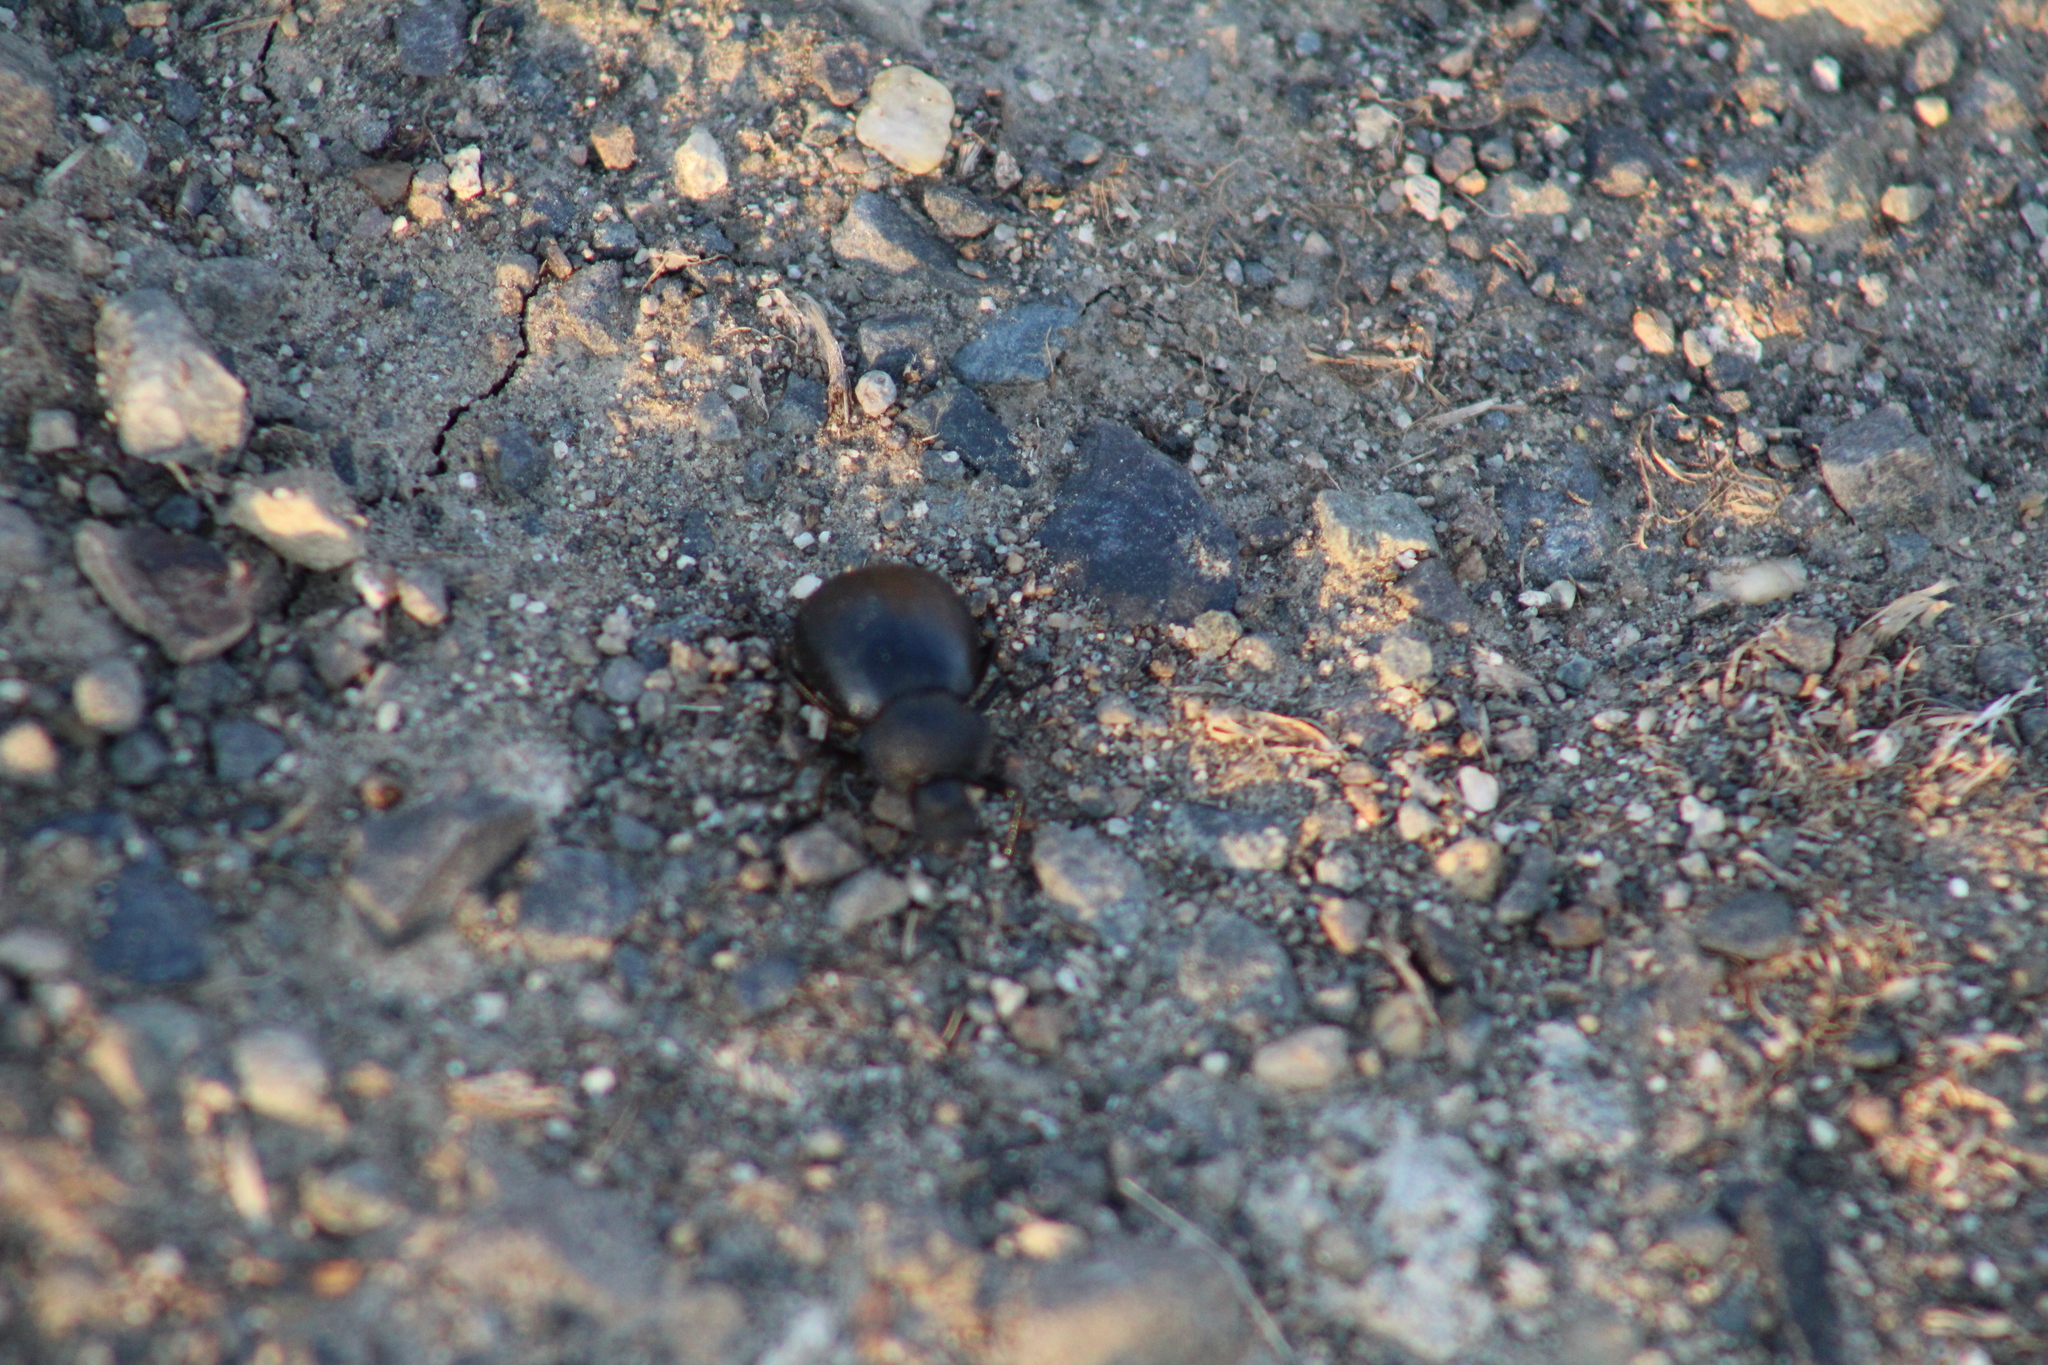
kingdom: Animalia
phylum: Arthropoda
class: Insecta
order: Coleoptera
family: Tenebrionidae
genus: Stenomorpha
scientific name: Stenomorpha puncticollis
